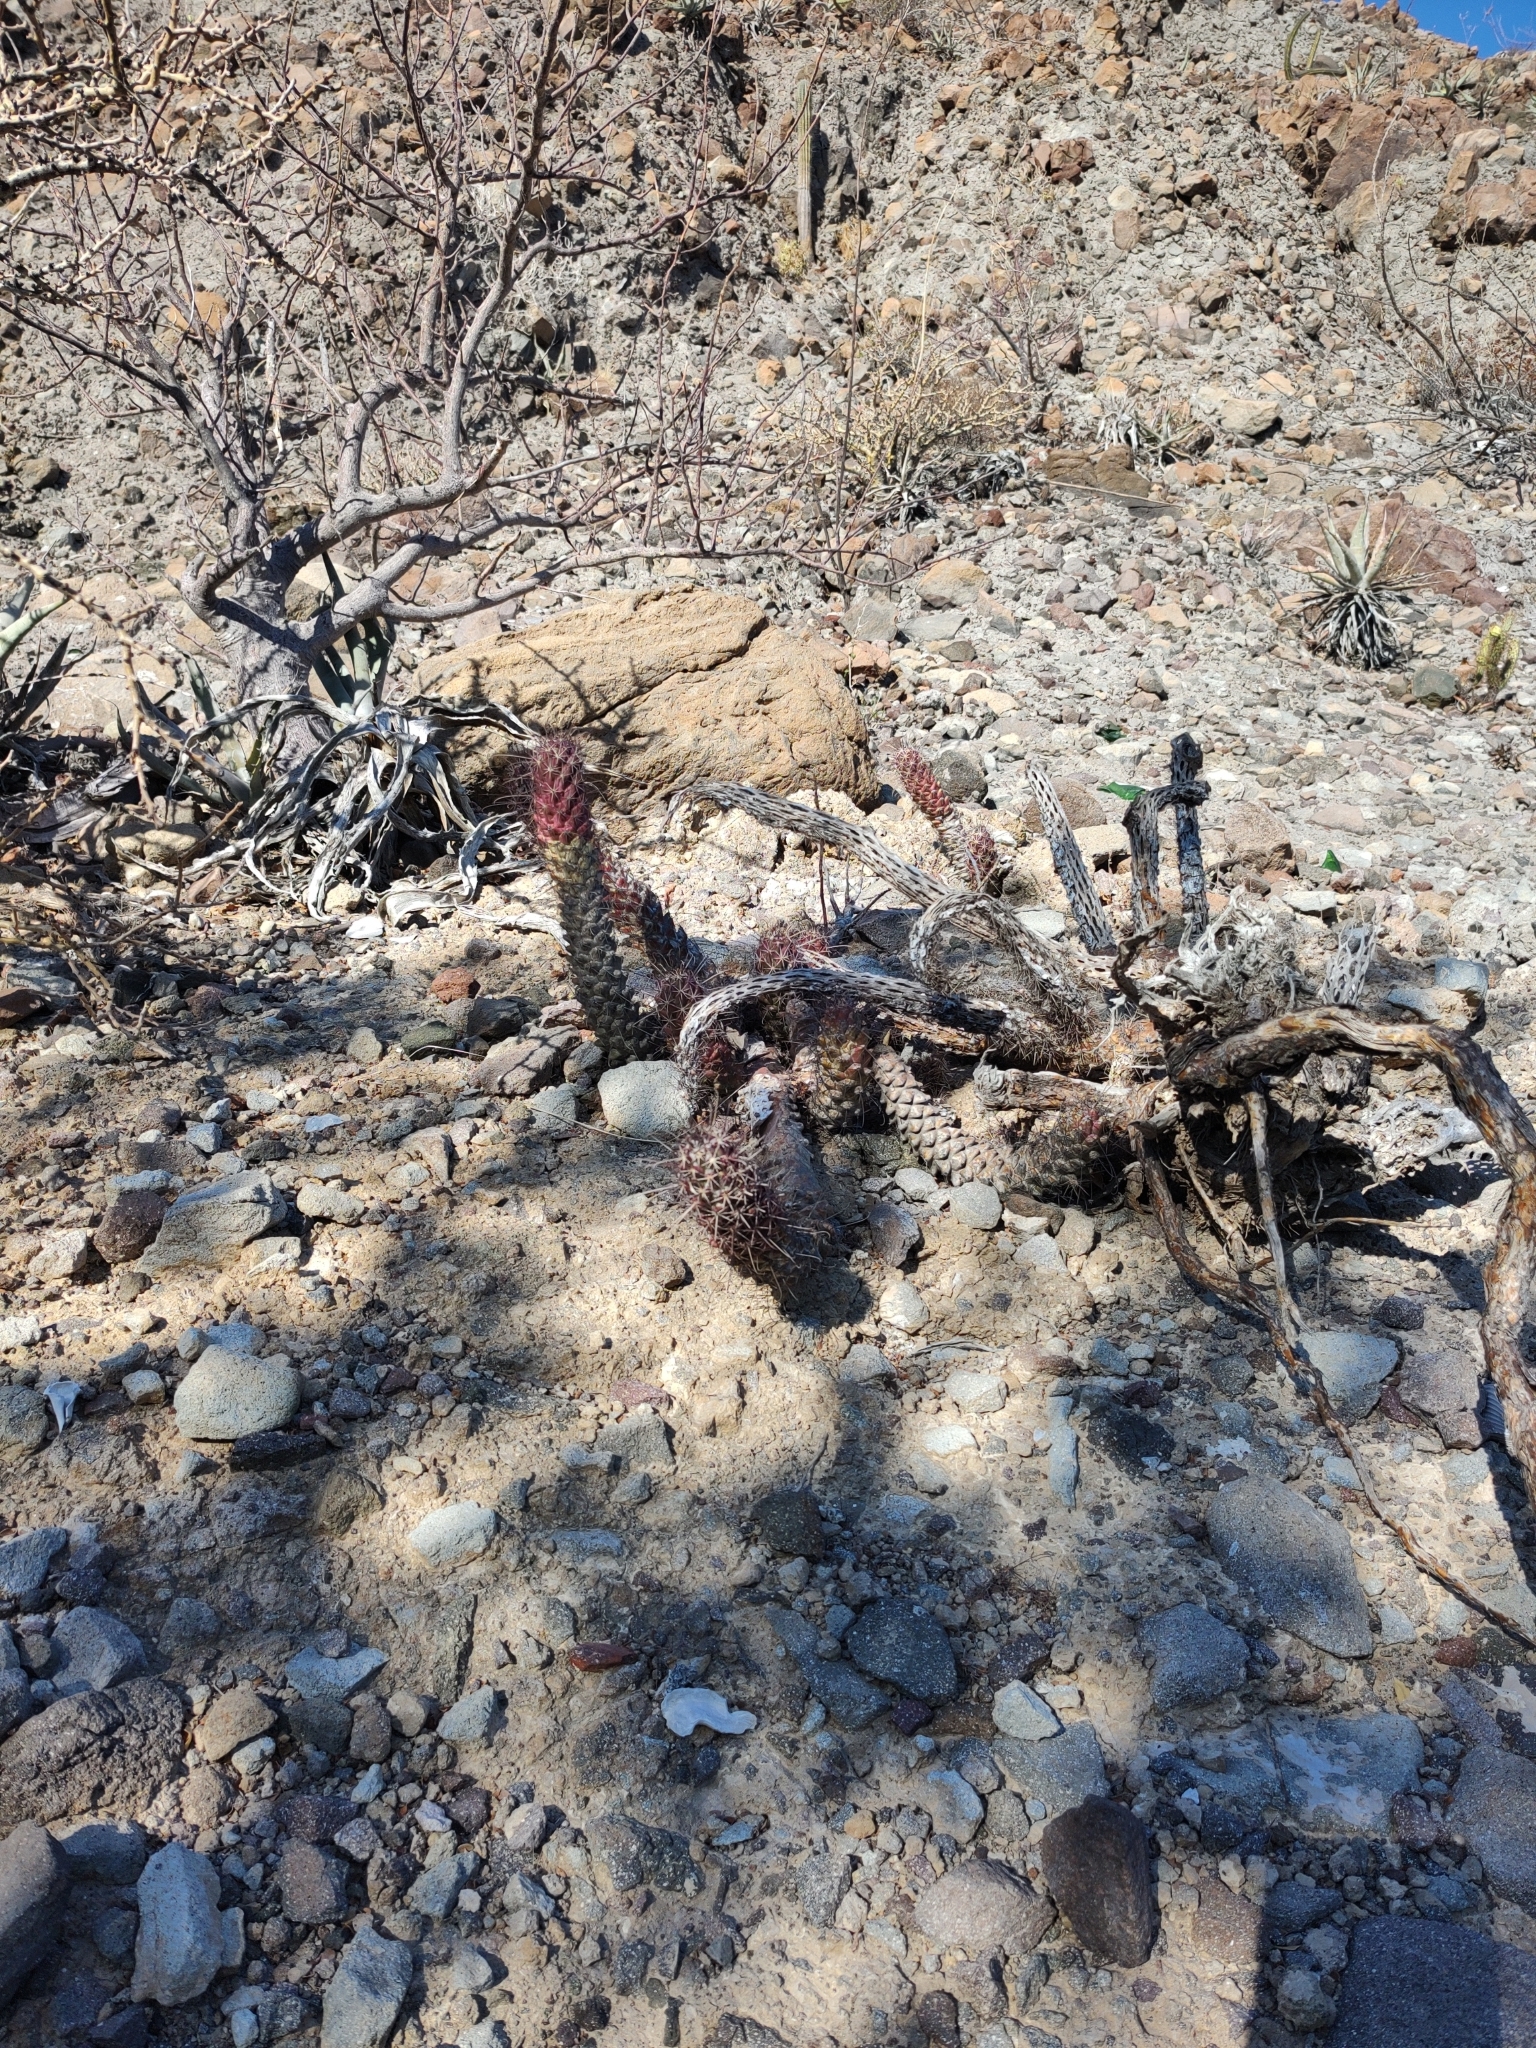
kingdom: Plantae
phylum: Tracheophyta
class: Magnoliopsida
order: Caryophyllales
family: Cactaceae
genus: Cochemiea
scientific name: Cochemiea poselgeri
